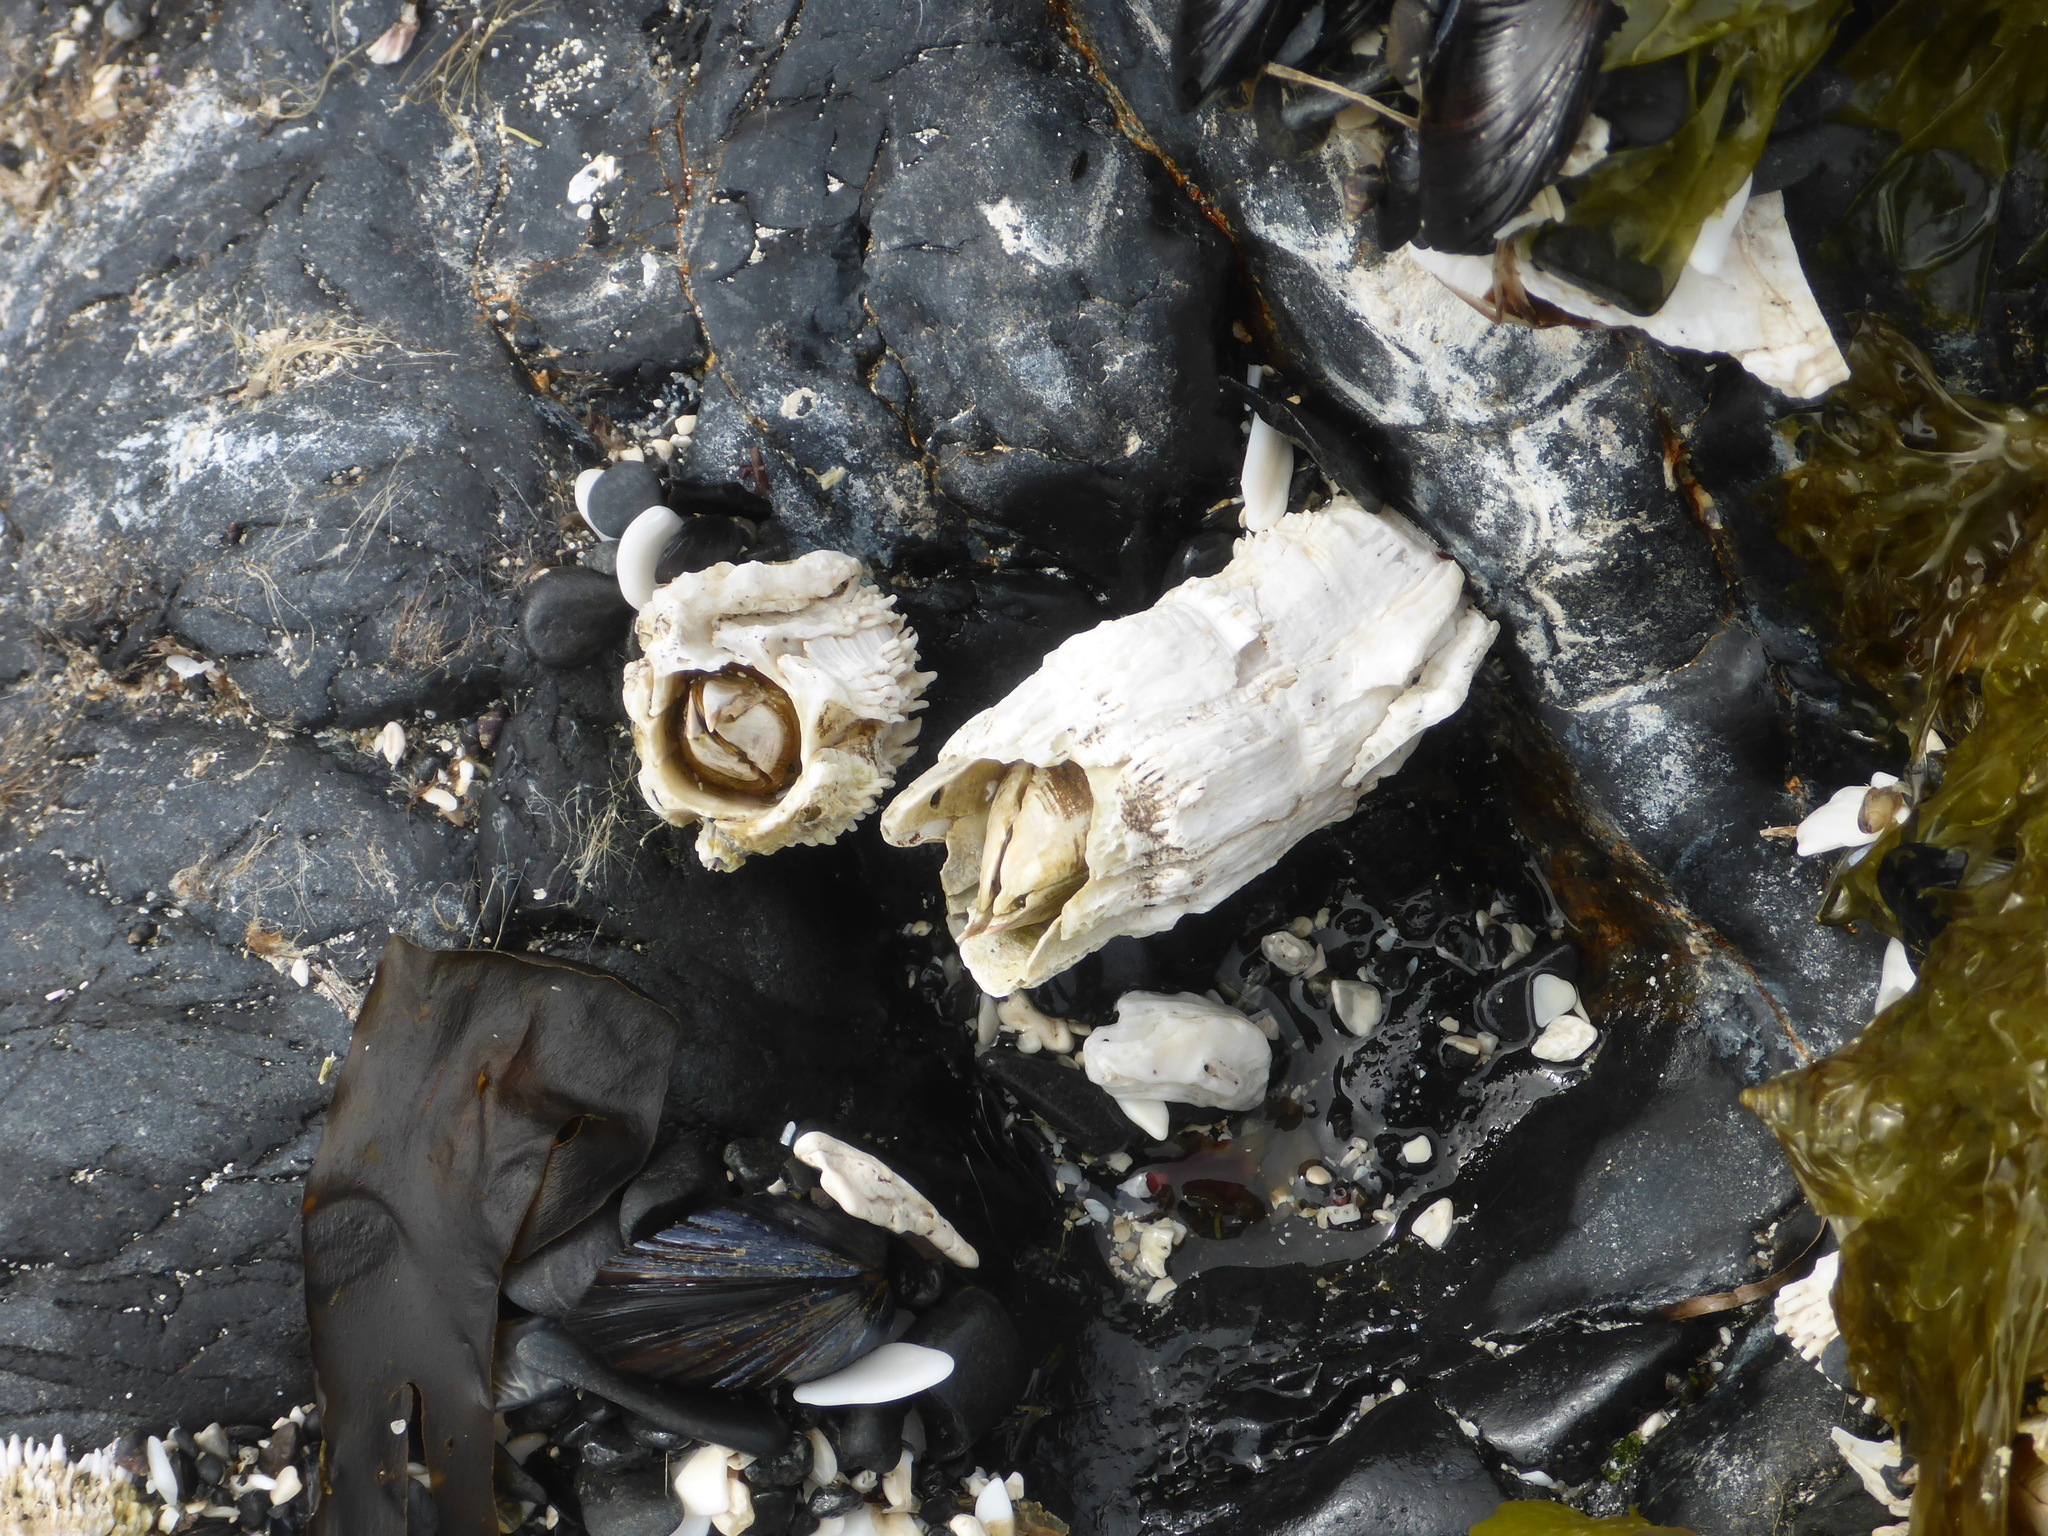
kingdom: Animalia
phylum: Arthropoda
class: Maxillopoda
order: Sessilia
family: Archaeobalanidae
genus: Semibalanus
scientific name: Semibalanus cariosus
